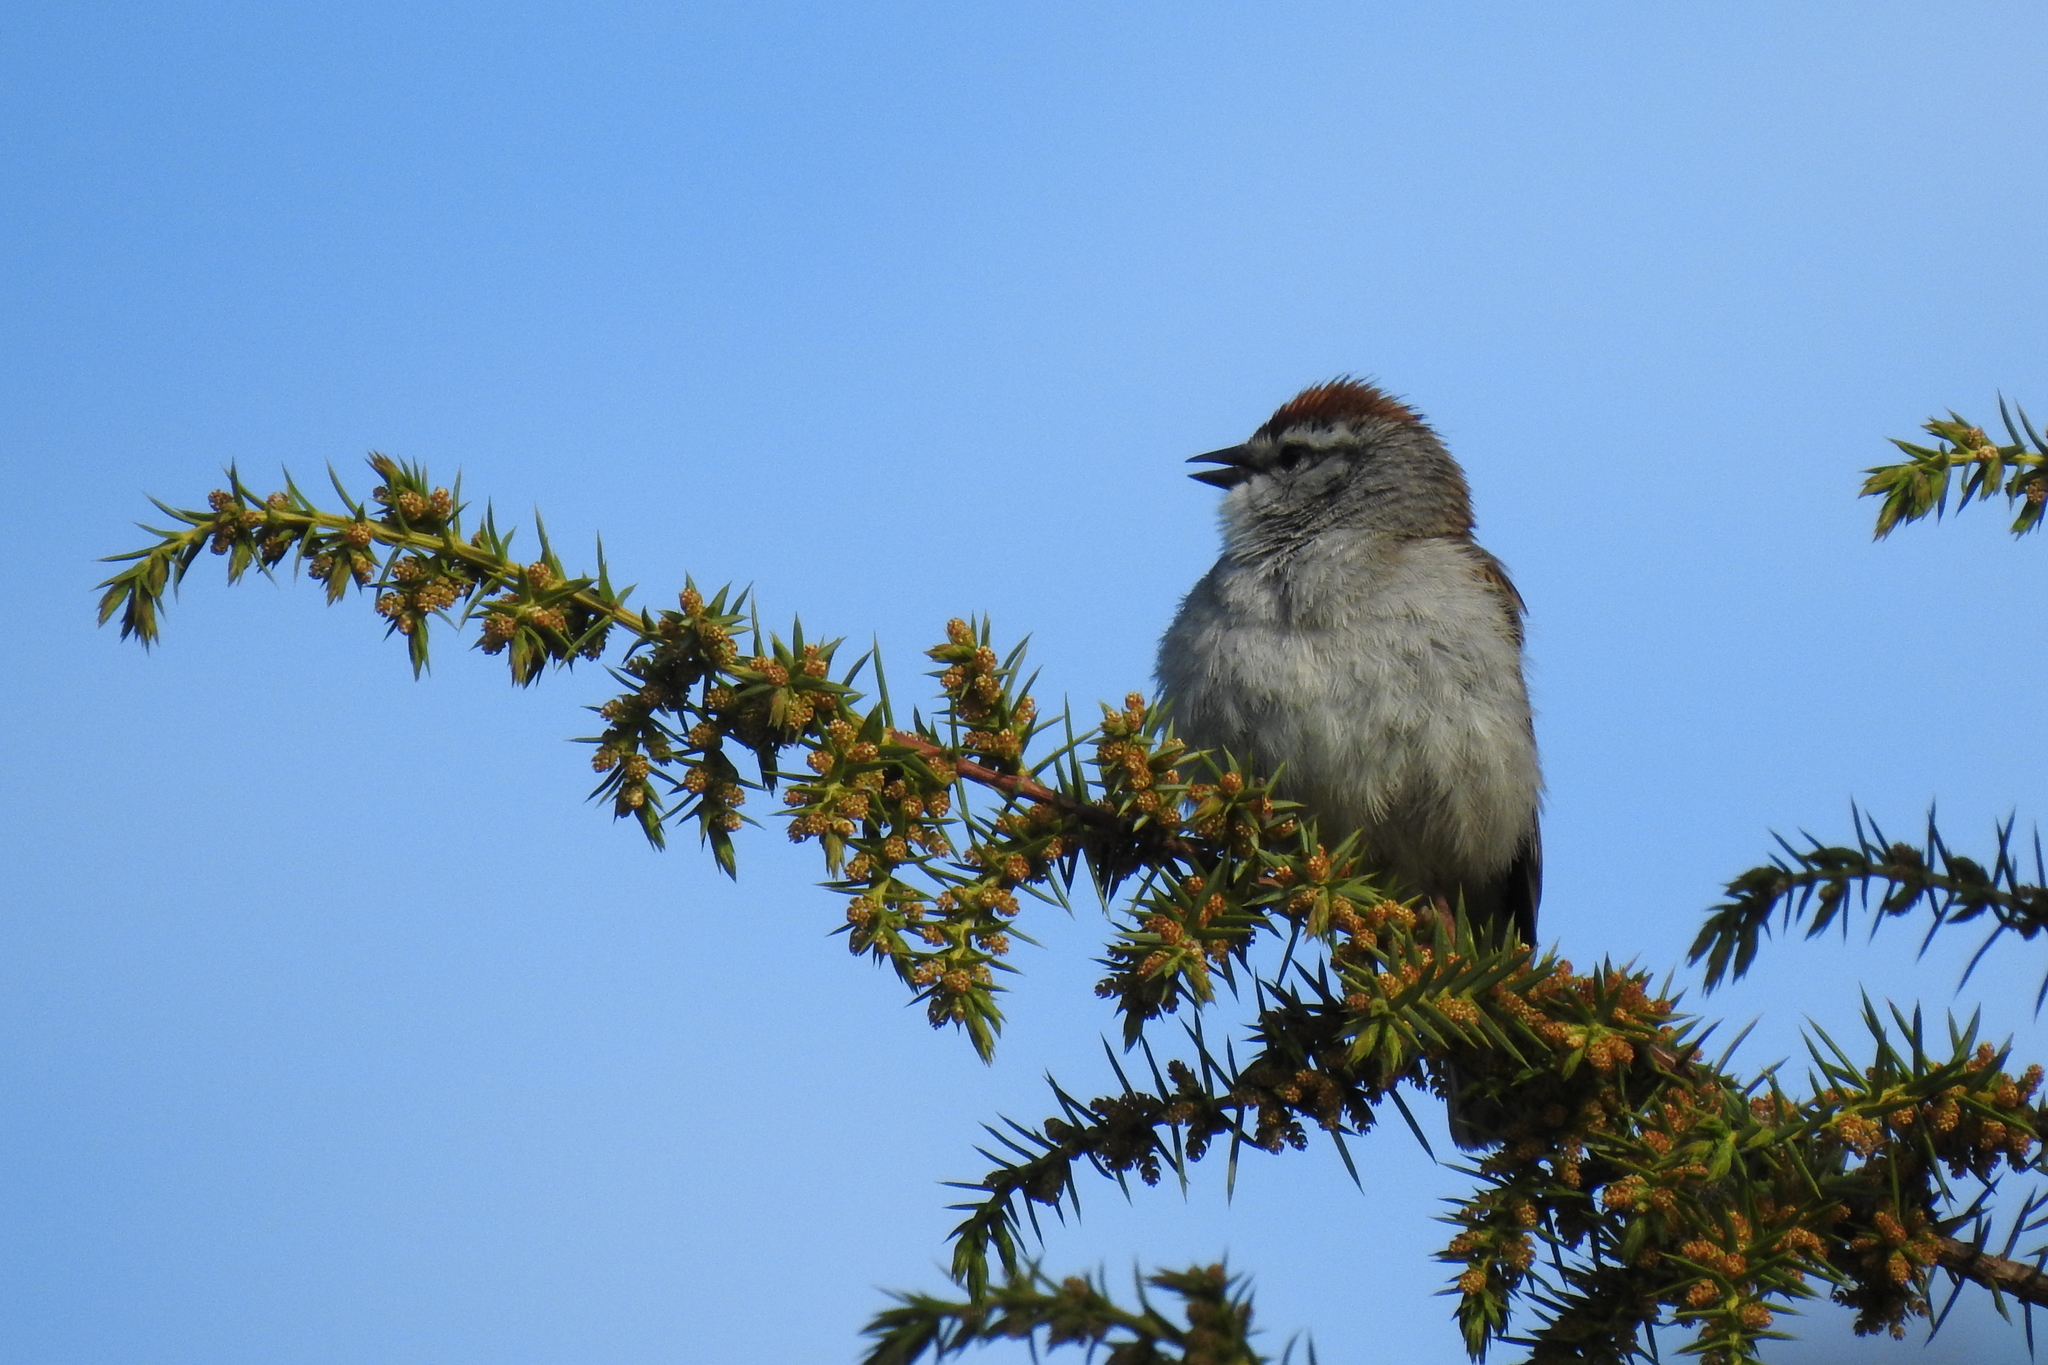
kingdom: Animalia
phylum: Chordata
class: Aves
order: Passeriformes
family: Passerellidae
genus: Spizella
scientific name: Spizella passerina
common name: Chipping sparrow
